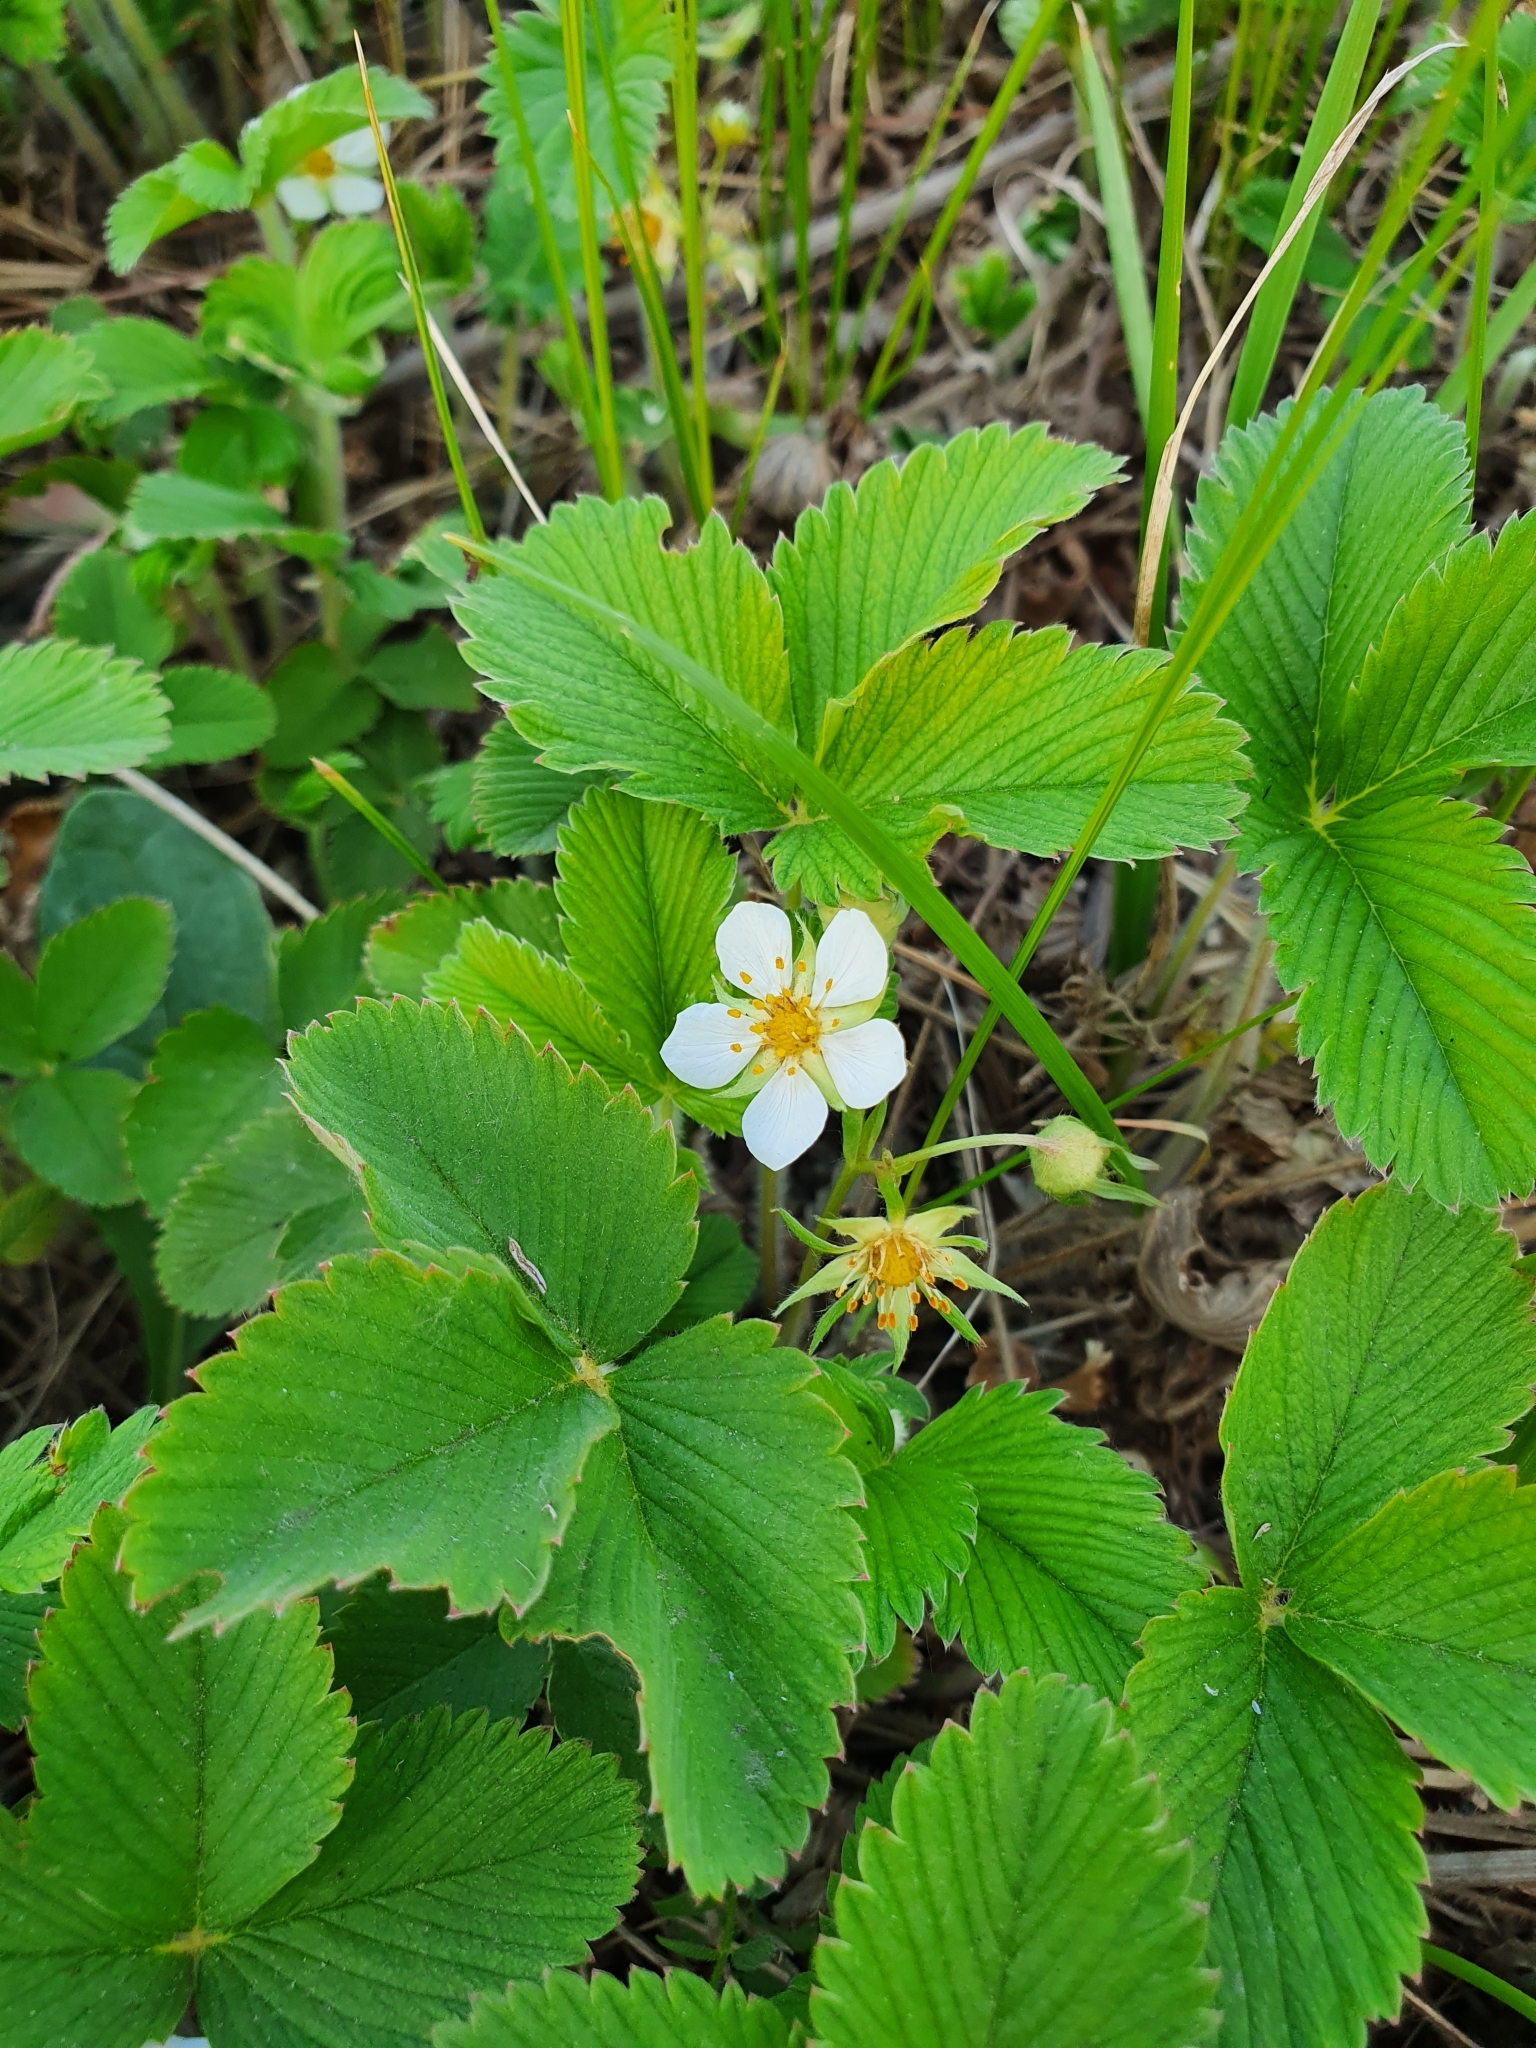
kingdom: Plantae
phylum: Tracheophyta
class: Magnoliopsida
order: Rosales
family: Rosaceae
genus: Fragaria
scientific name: Fragaria viridis
